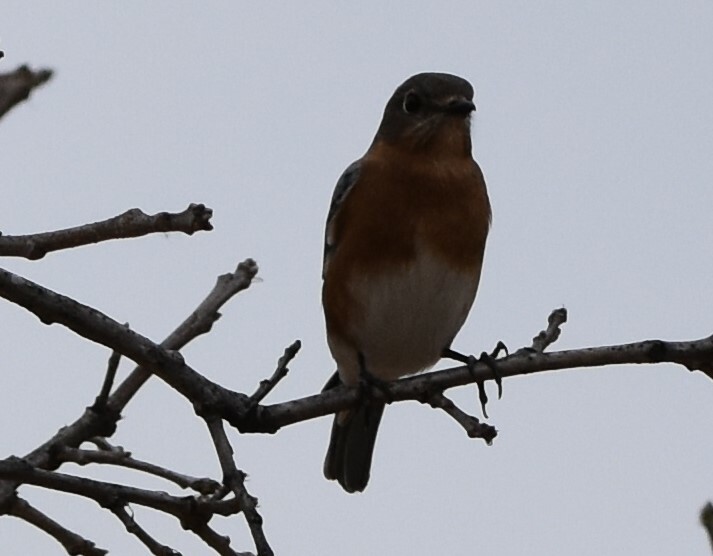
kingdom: Animalia
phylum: Chordata
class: Aves
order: Passeriformes
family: Turdidae
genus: Sialia
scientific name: Sialia sialis
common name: Eastern bluebird
